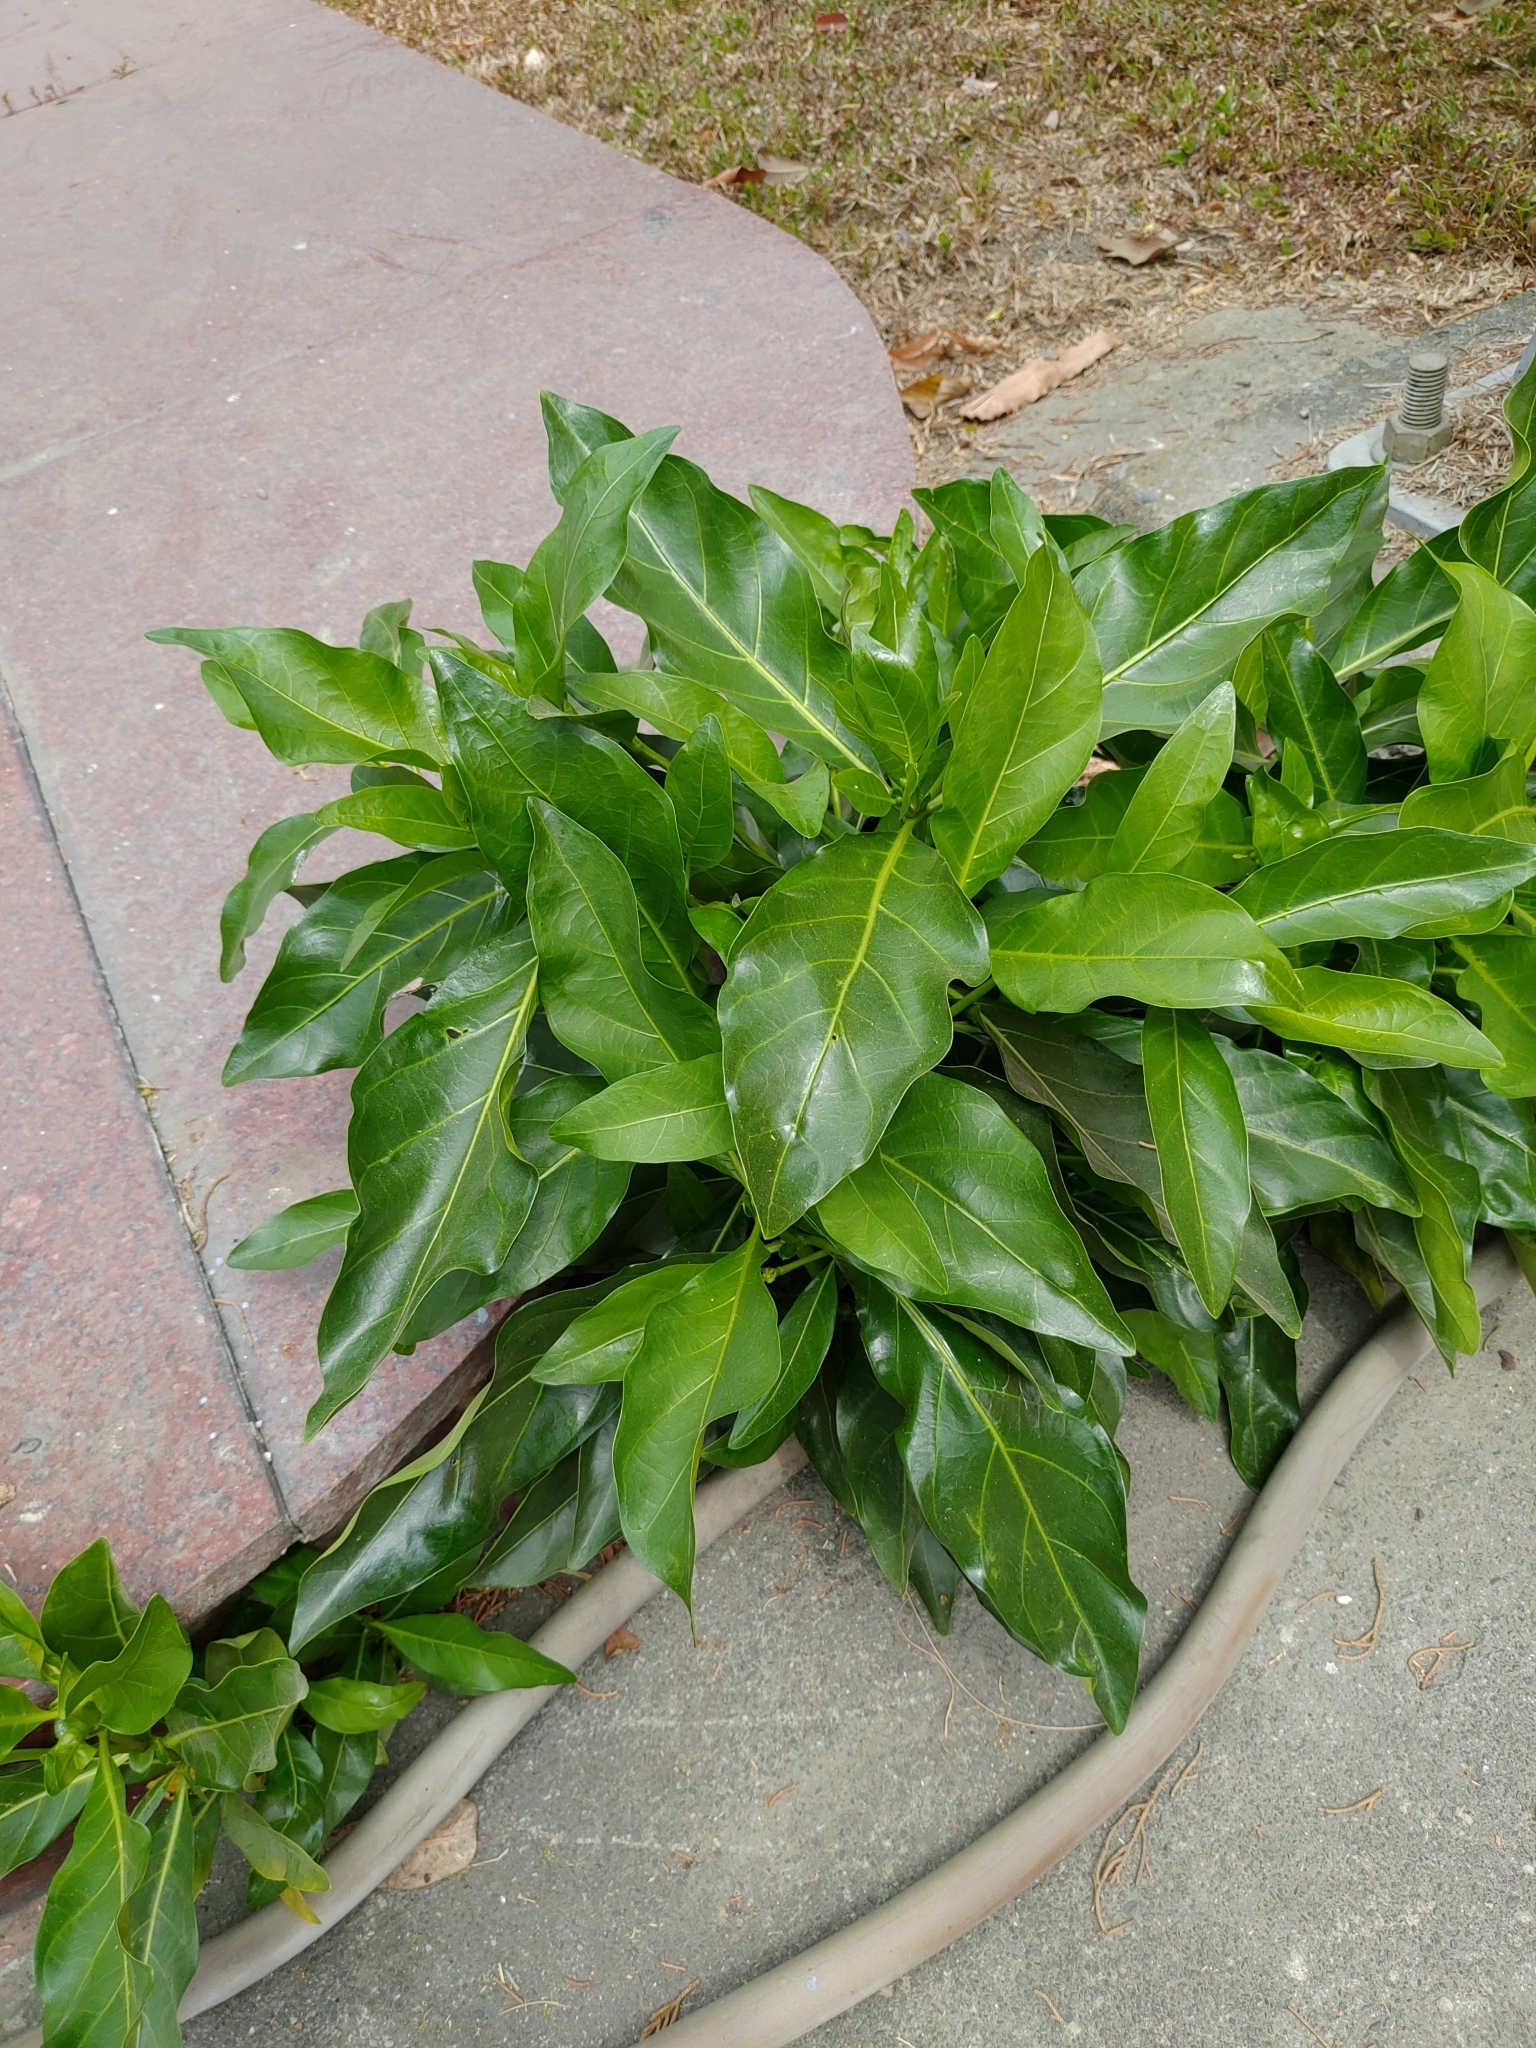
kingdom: Plantae
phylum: Tracheophyta
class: Magnoliopsida
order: Gentianales
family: Rubiaceae
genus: Morinda
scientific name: Morinda citrifolia
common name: Indian-mulberry
